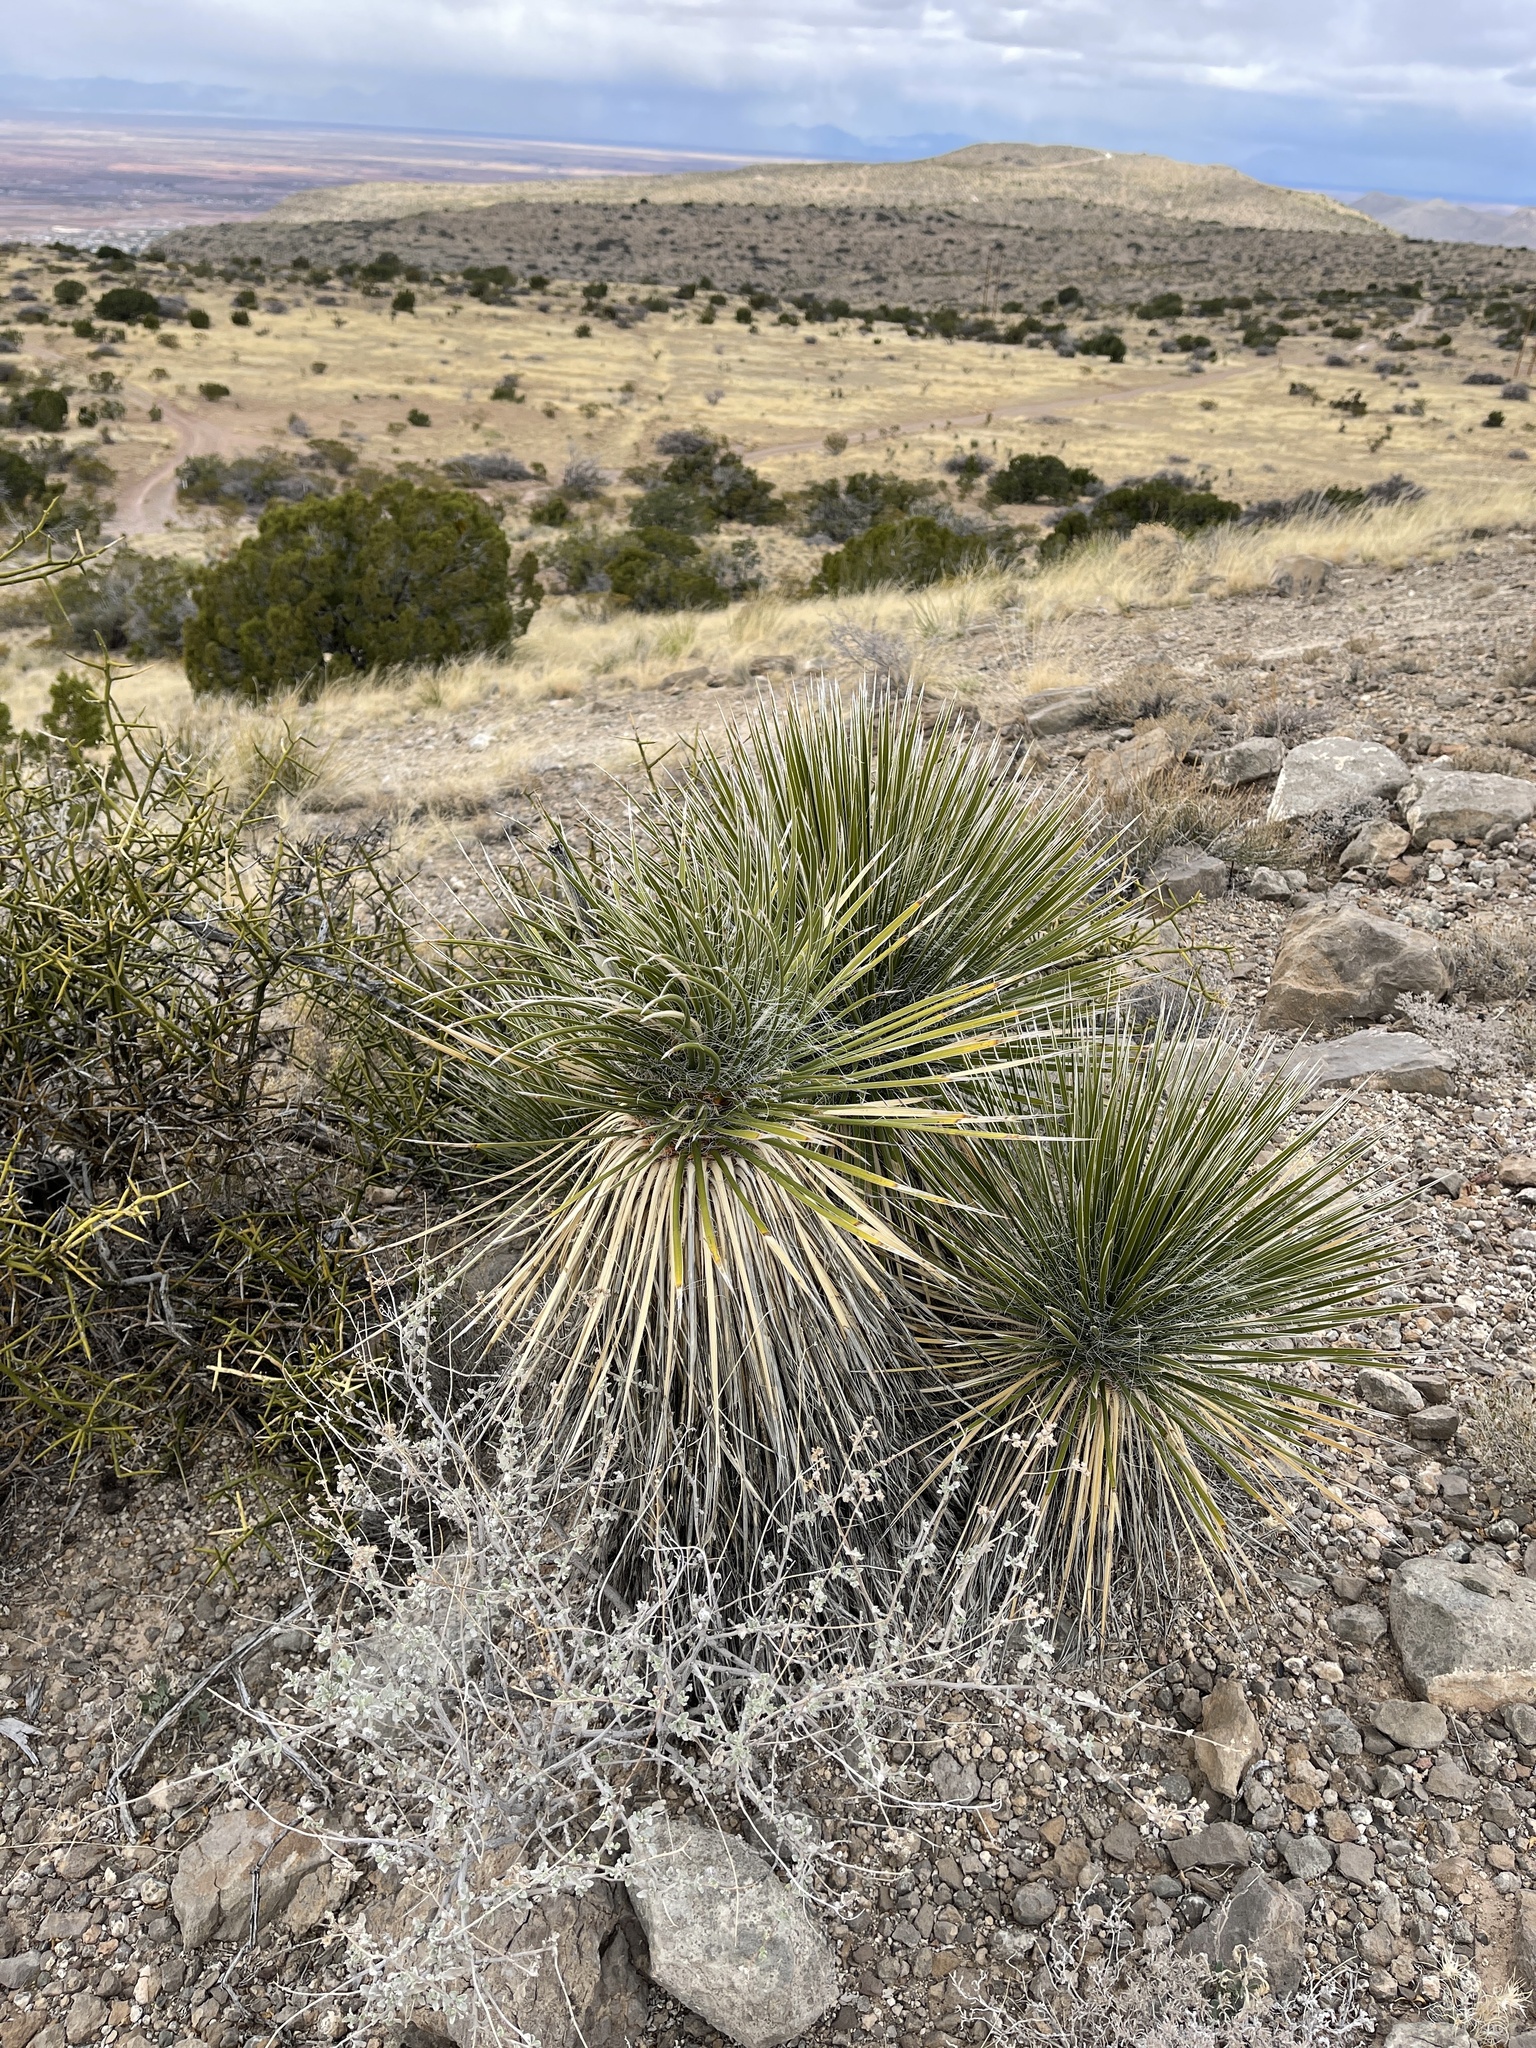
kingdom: Plantae
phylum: Tracheophyta
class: Liliopsida
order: Asparagales
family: Asparagaceae
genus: Yucca
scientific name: Yucca elata
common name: Palmella
